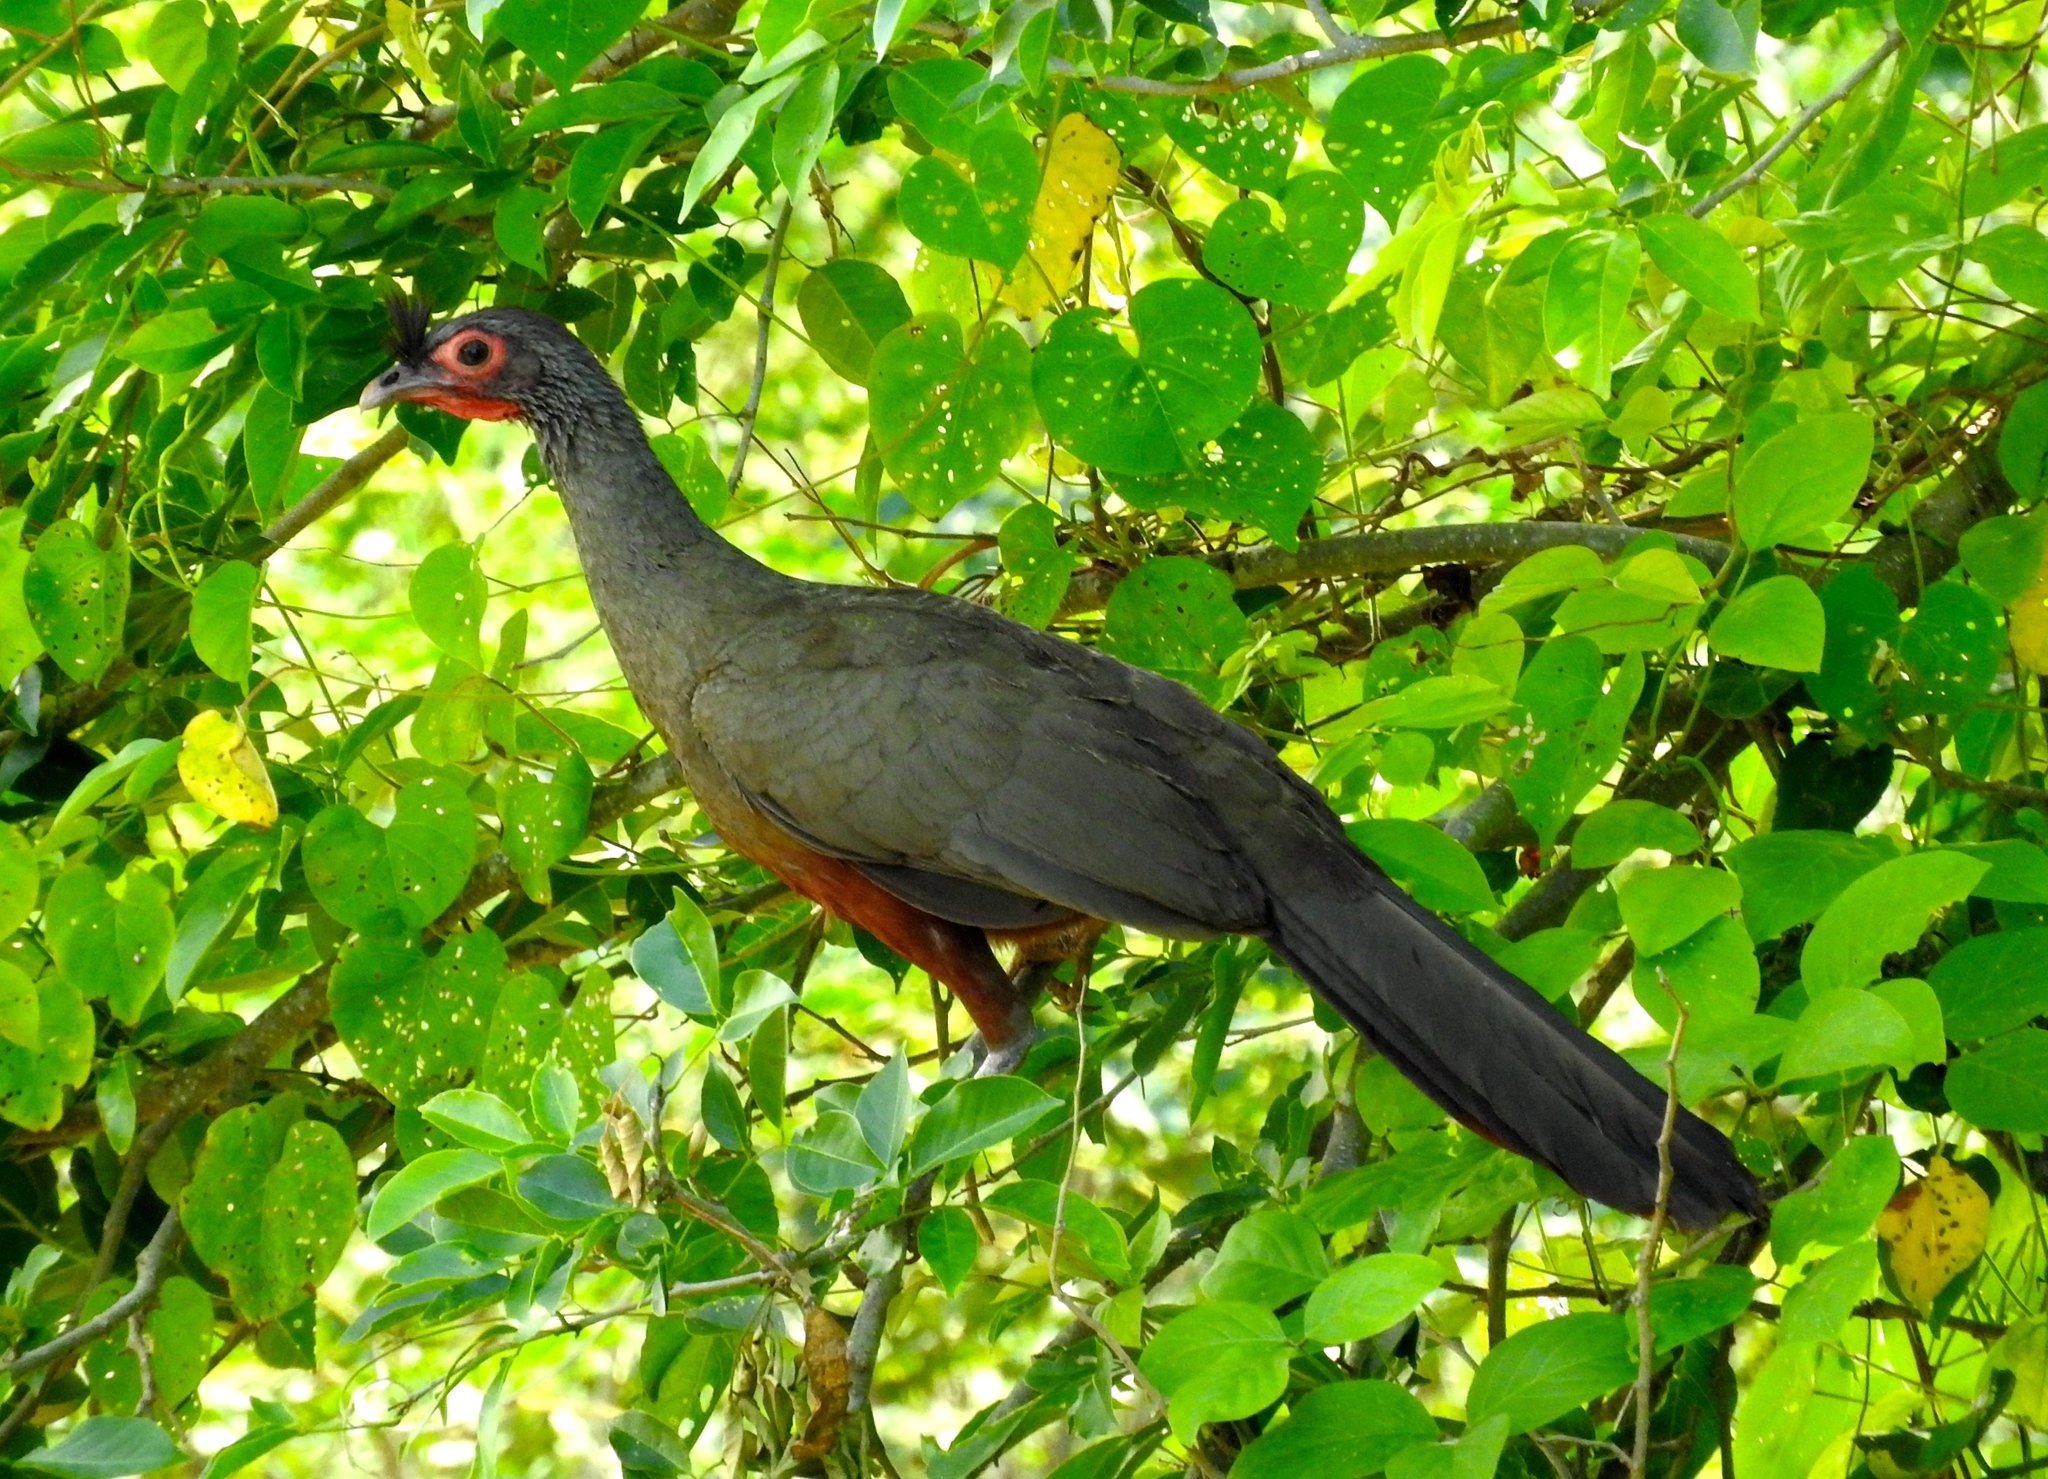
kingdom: Animalia
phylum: Chordata
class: Aves
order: Galliformes
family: Cracidae
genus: Ortalis
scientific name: Ortalis wagleri
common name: Rufous-bellied chachalaca
